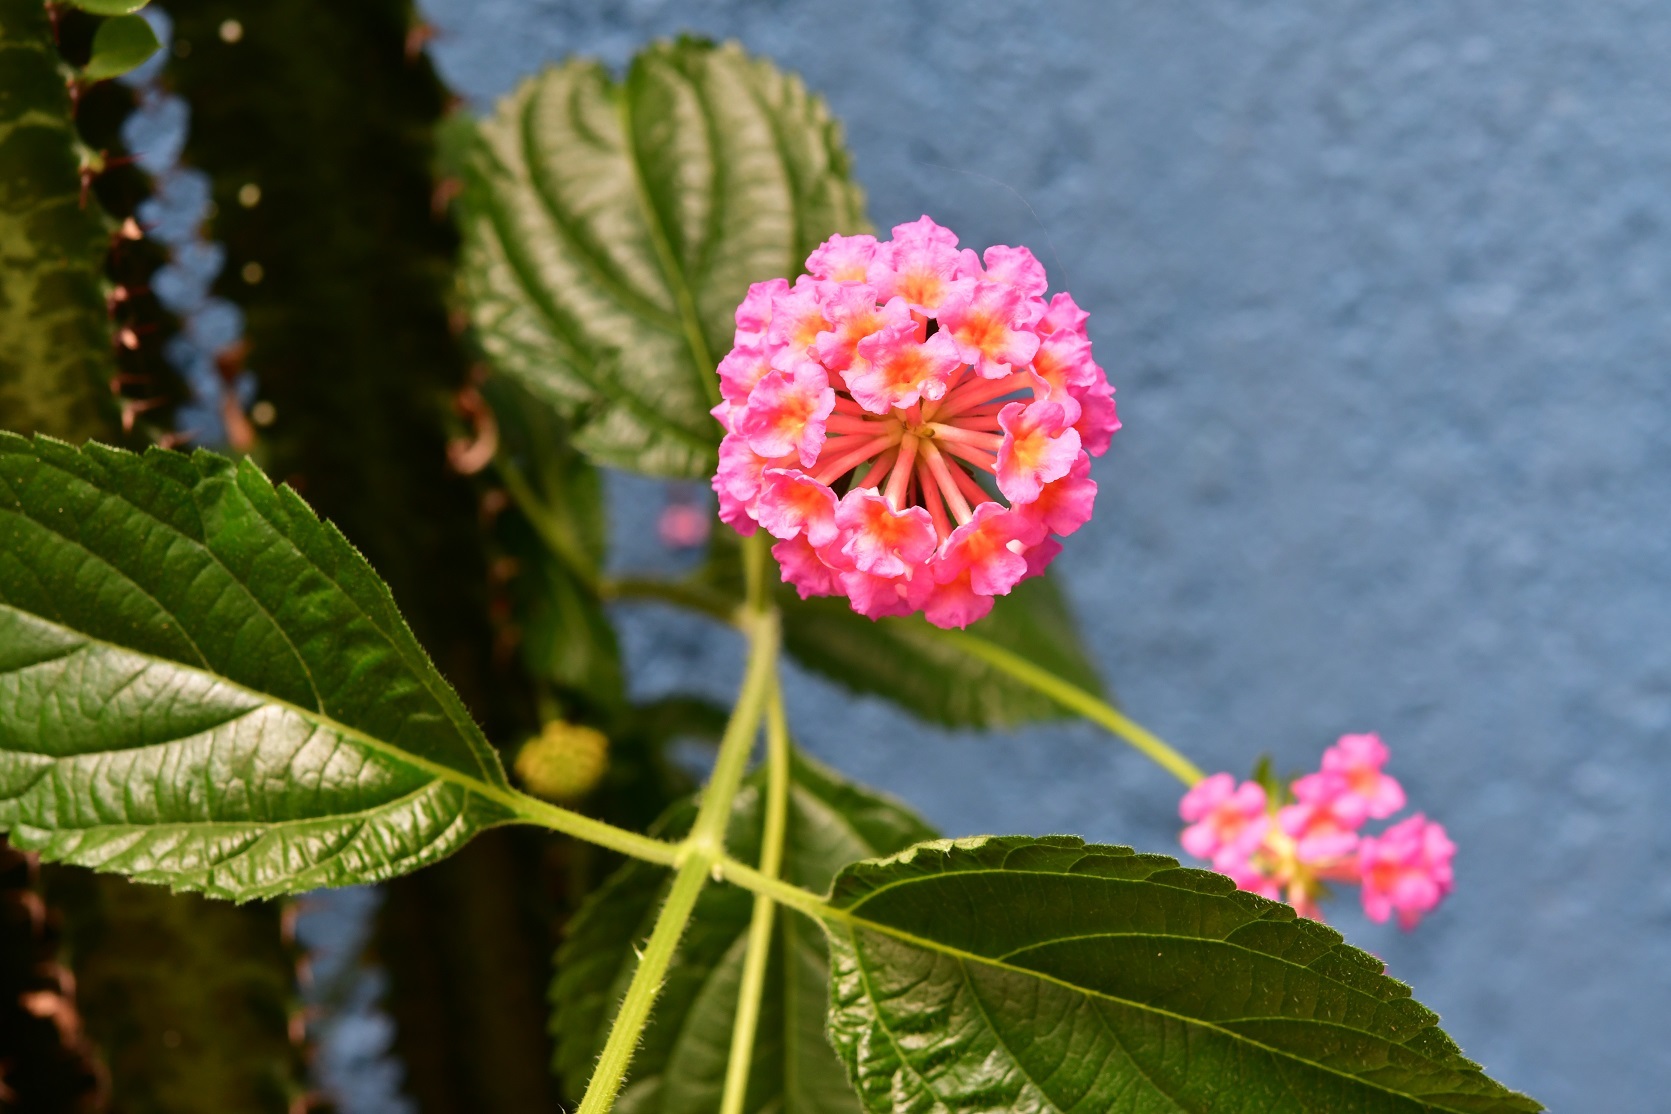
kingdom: Plantae
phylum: Tracheophyta
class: Magnoliopsida
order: Lamiales
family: Verbenaceae
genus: Lantana
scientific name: Lantana camara
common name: Lantana
